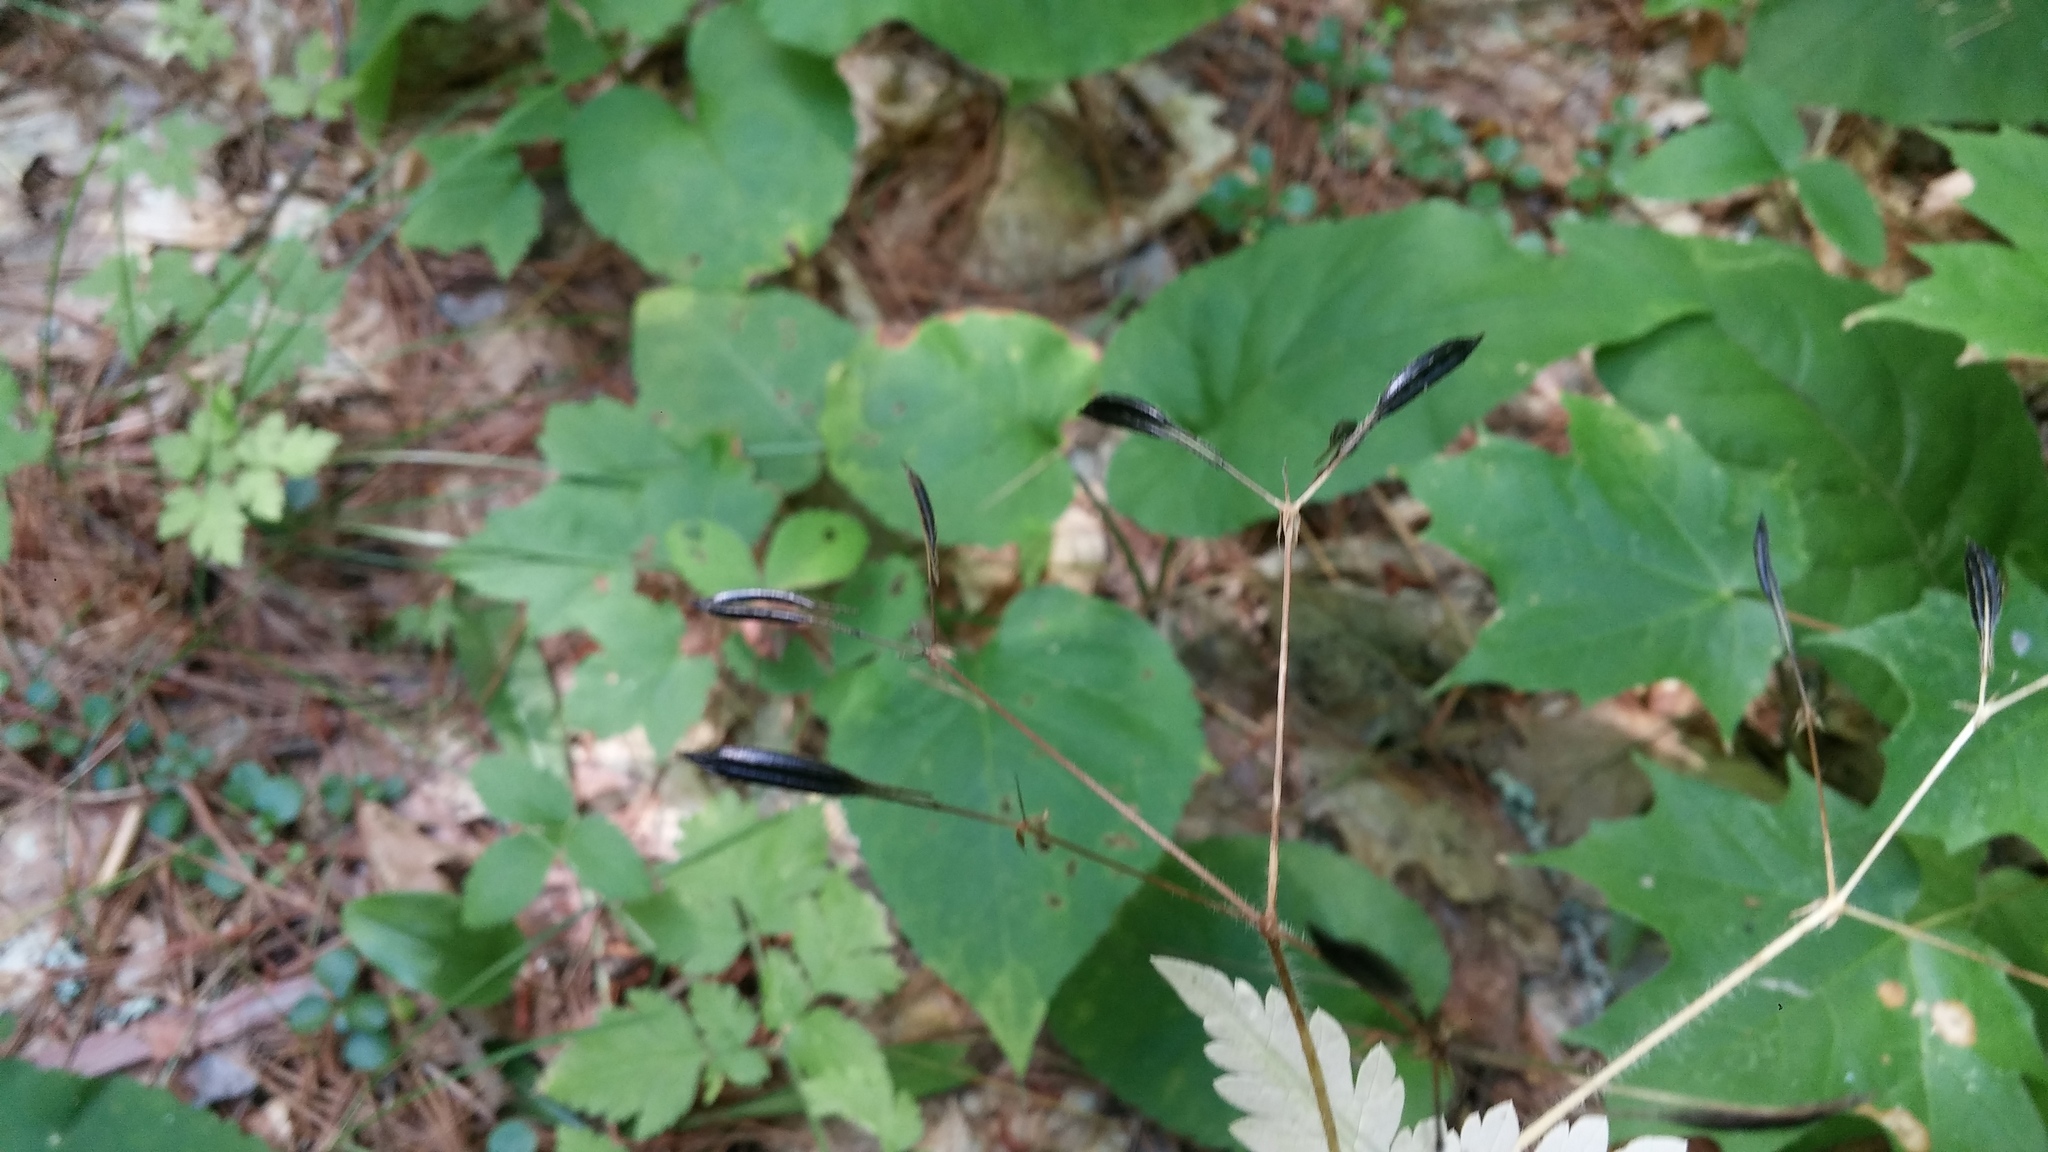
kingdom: Plantae
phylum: Tracheophyta
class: Magnoliopsida
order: Apiales
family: Apiaceae
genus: Osmorhiza
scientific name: Osmorhiza claytonii
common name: Hairy sweet cicely
